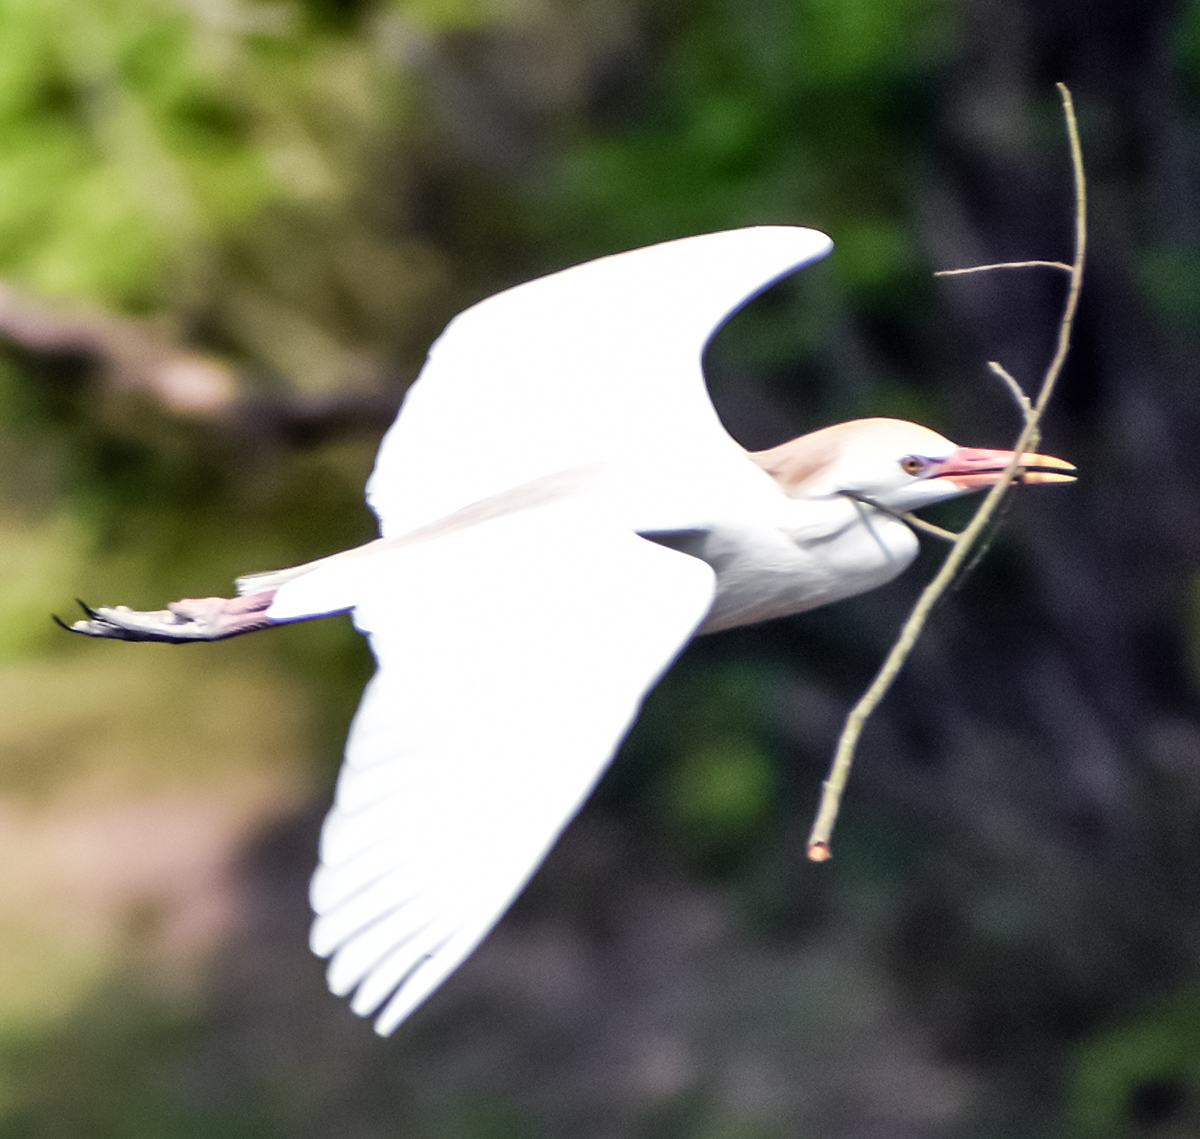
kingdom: Animalia
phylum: Chordata
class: Aves
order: Pelecaniformes
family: Ardeidae
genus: Bubulcus
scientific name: Bubulcus ibis
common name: Cattle egret
